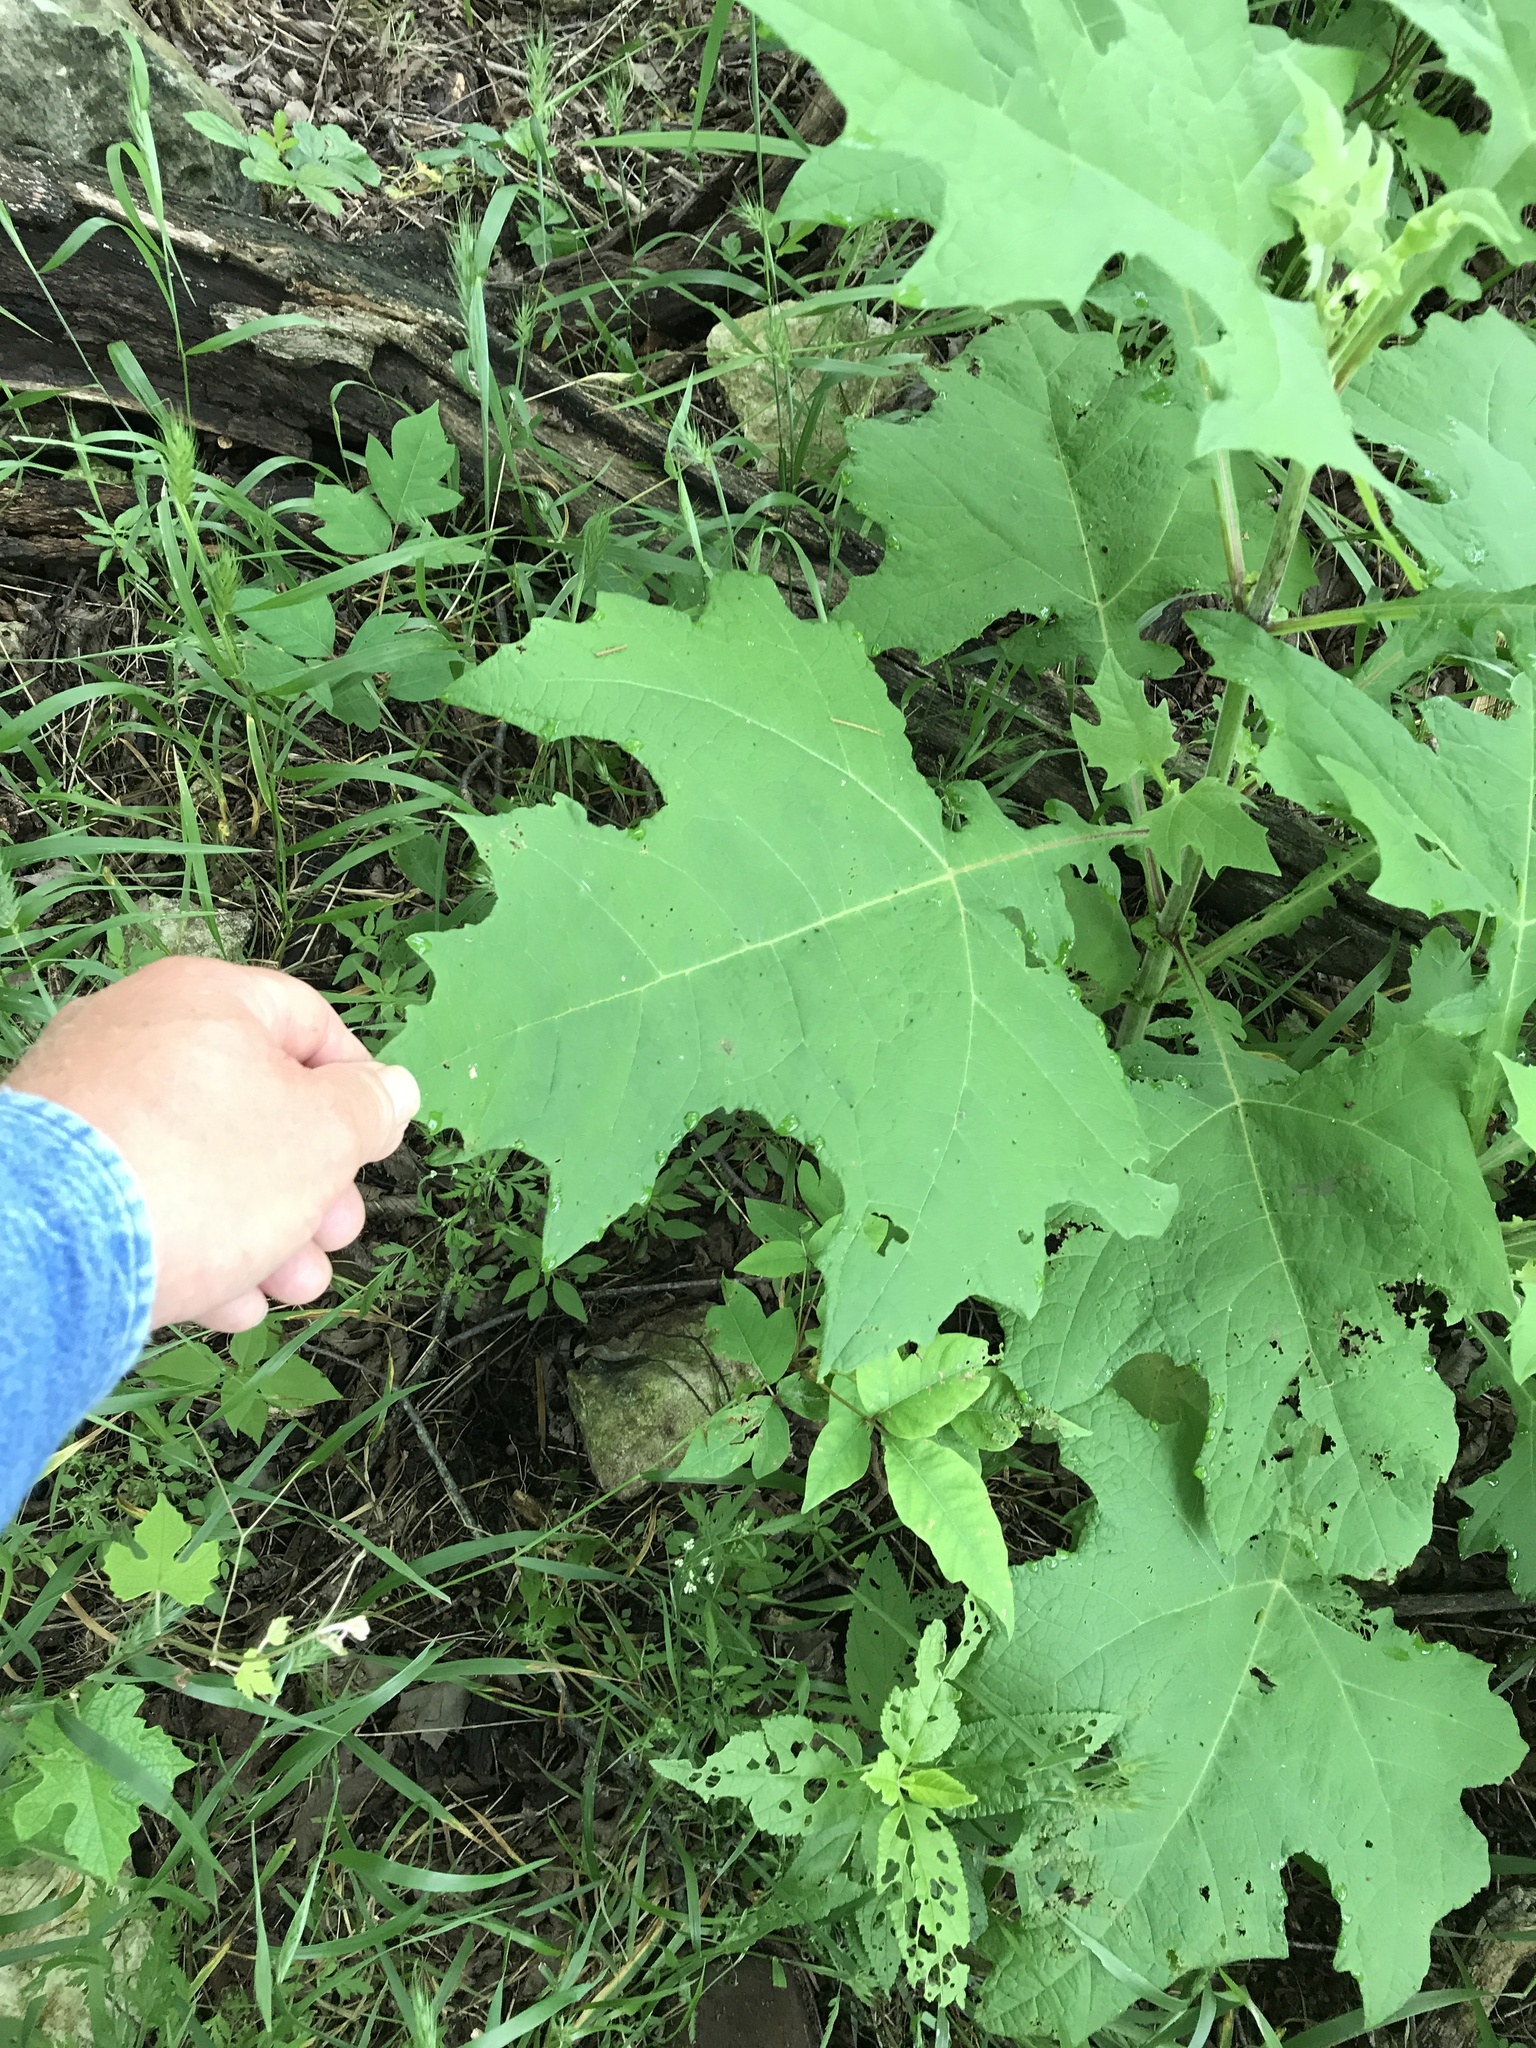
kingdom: Plantae
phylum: Tracheophyta
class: Magnoliopsida
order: Asterales
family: Asteraceae
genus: Smallanthus
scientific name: Smallanthus uvedalia
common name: Bear's-foot
